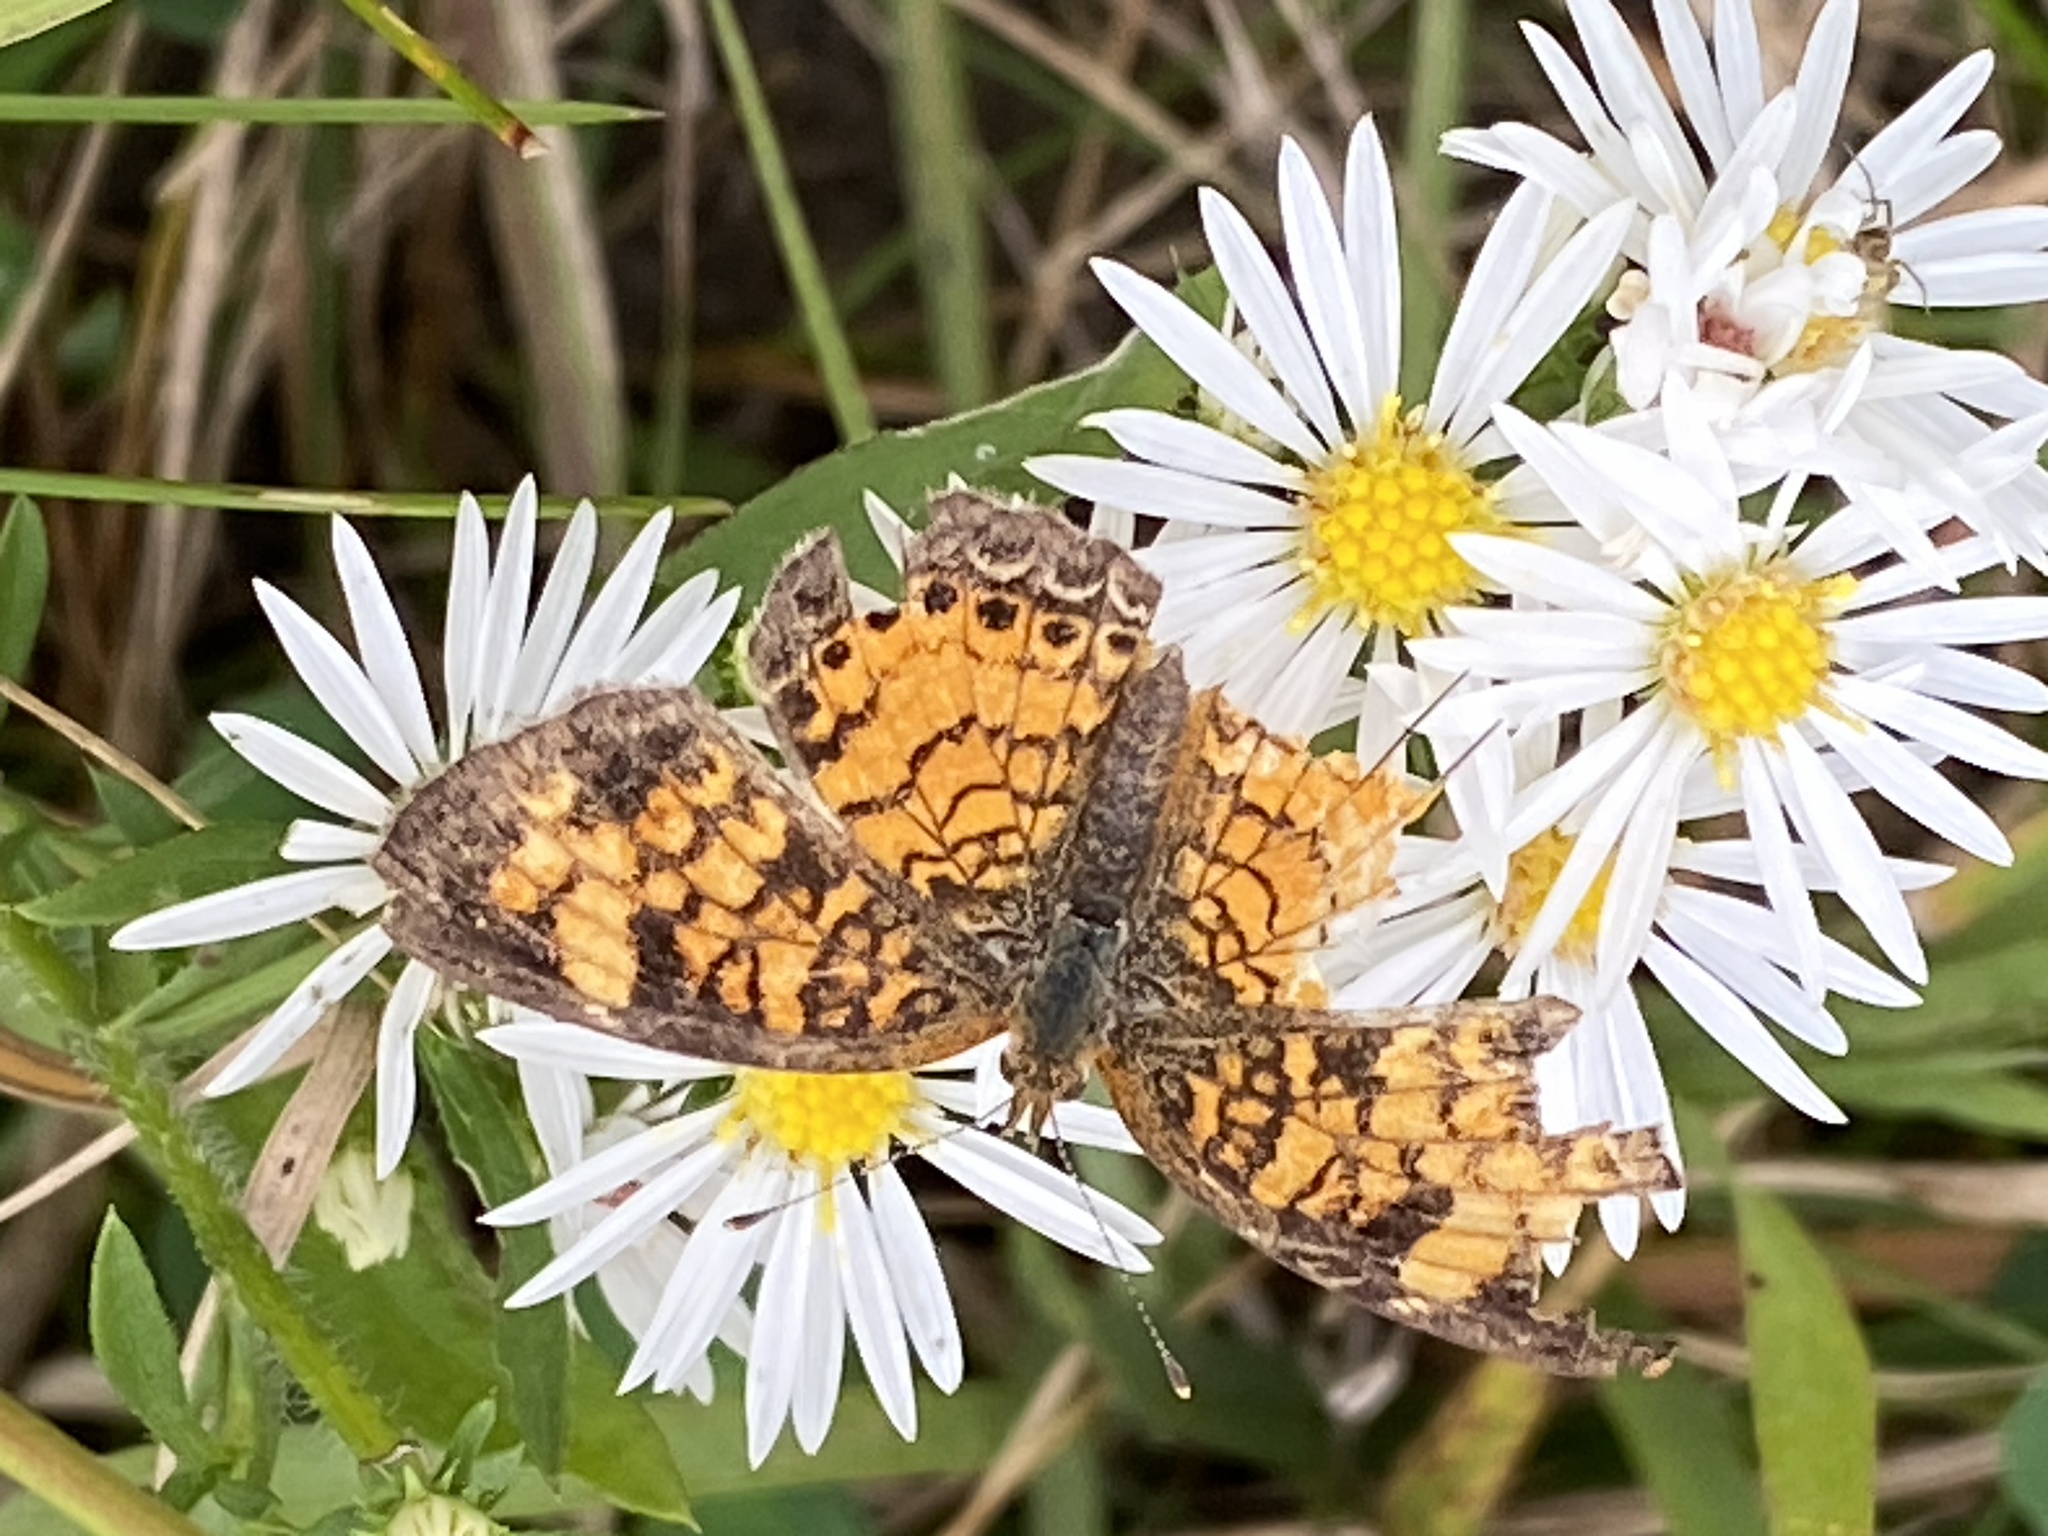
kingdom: Animalia
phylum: Arthropoda
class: Insecta
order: Lepidoptera
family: Nymphalidae
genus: Phyciodes
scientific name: Phyciodes tharos
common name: Pearl crescent
